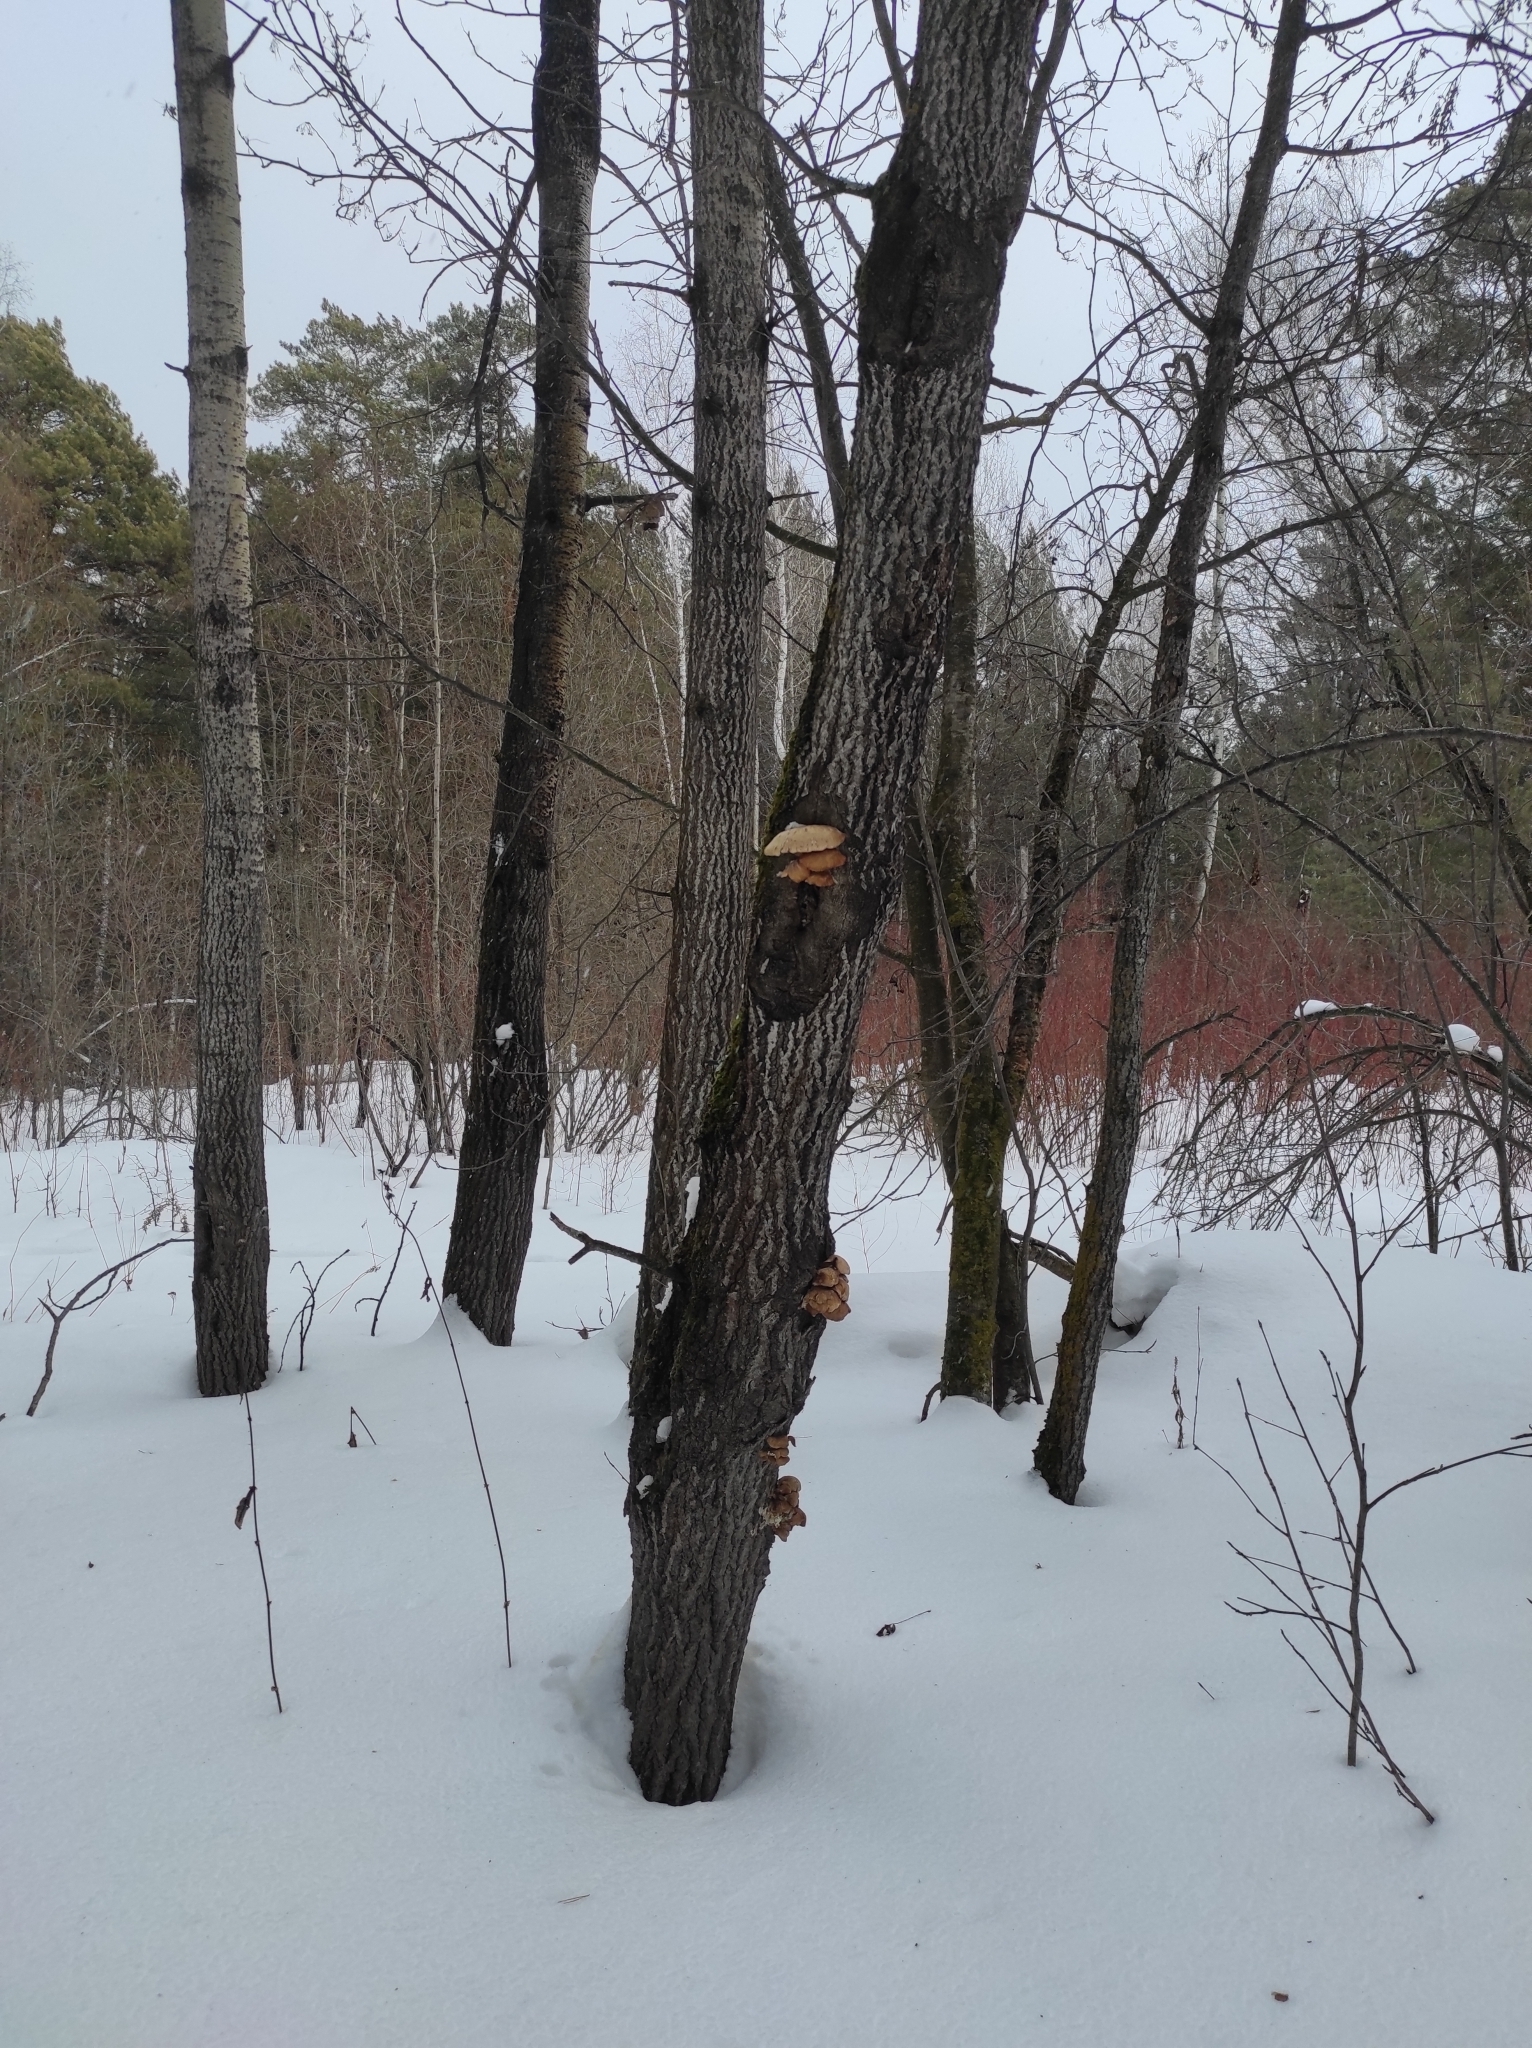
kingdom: Plantae
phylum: Tracheophyta
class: Magnoliopsida
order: Malpighiales
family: Salicaceae
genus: Populus
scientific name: Populus tremula
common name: European aspen
